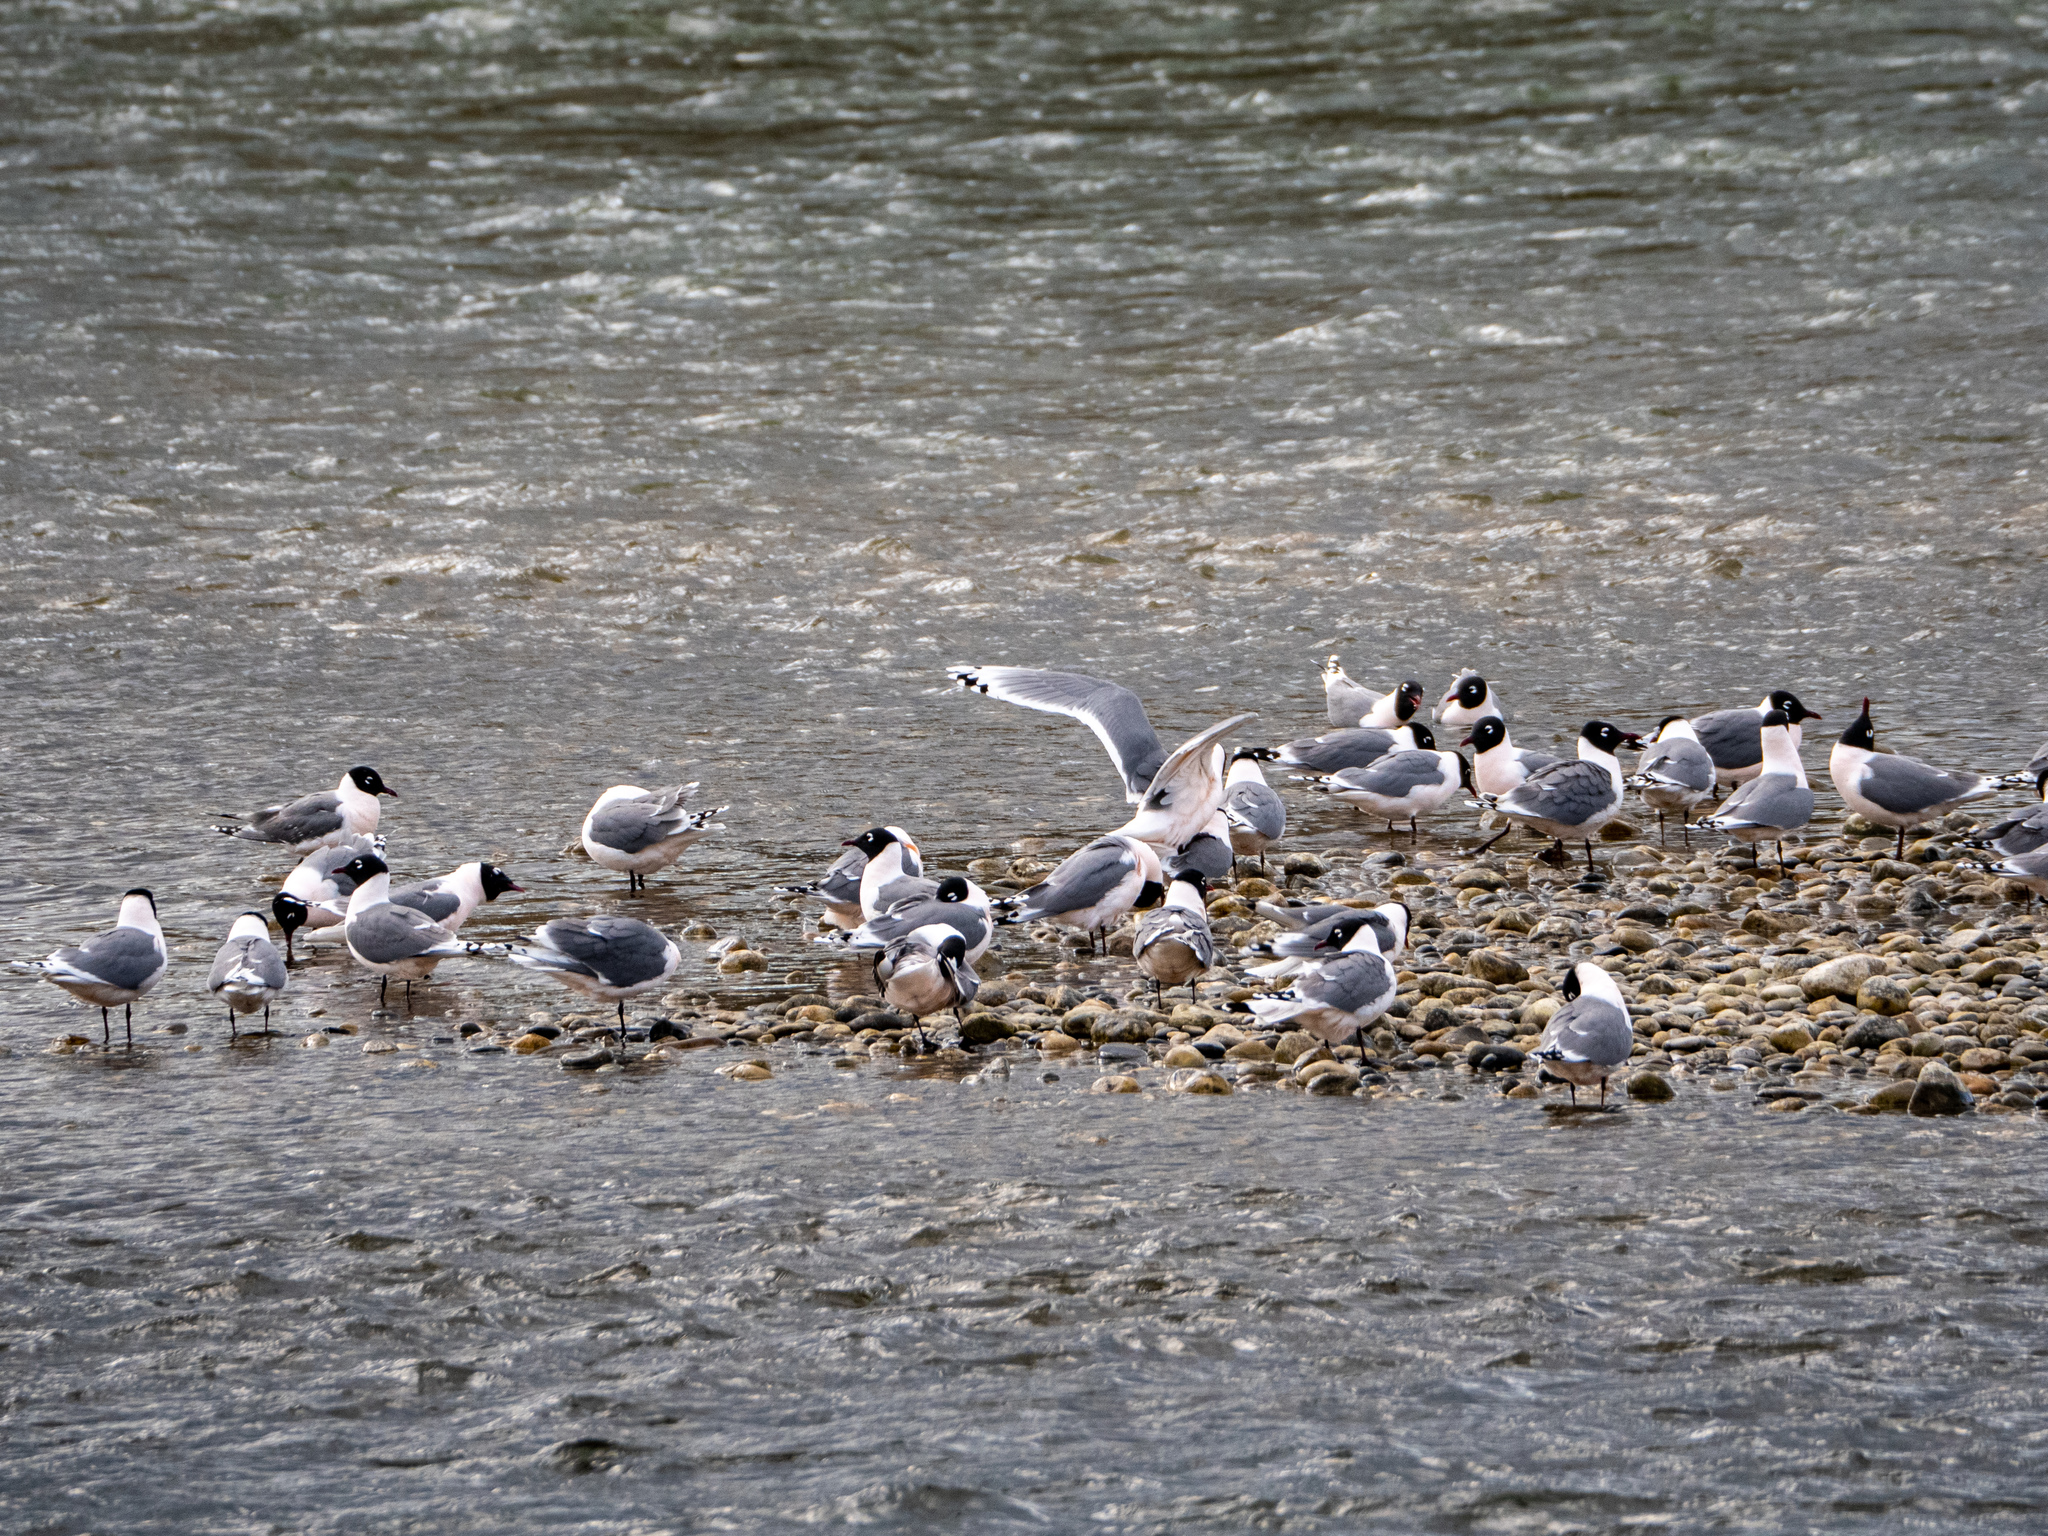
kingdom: Animalia
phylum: Chordata
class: Aves
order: Charadriiformes
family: Laridae
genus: Leucophaeus
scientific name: Leucophaeus pipixcan
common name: Franklin's gull
